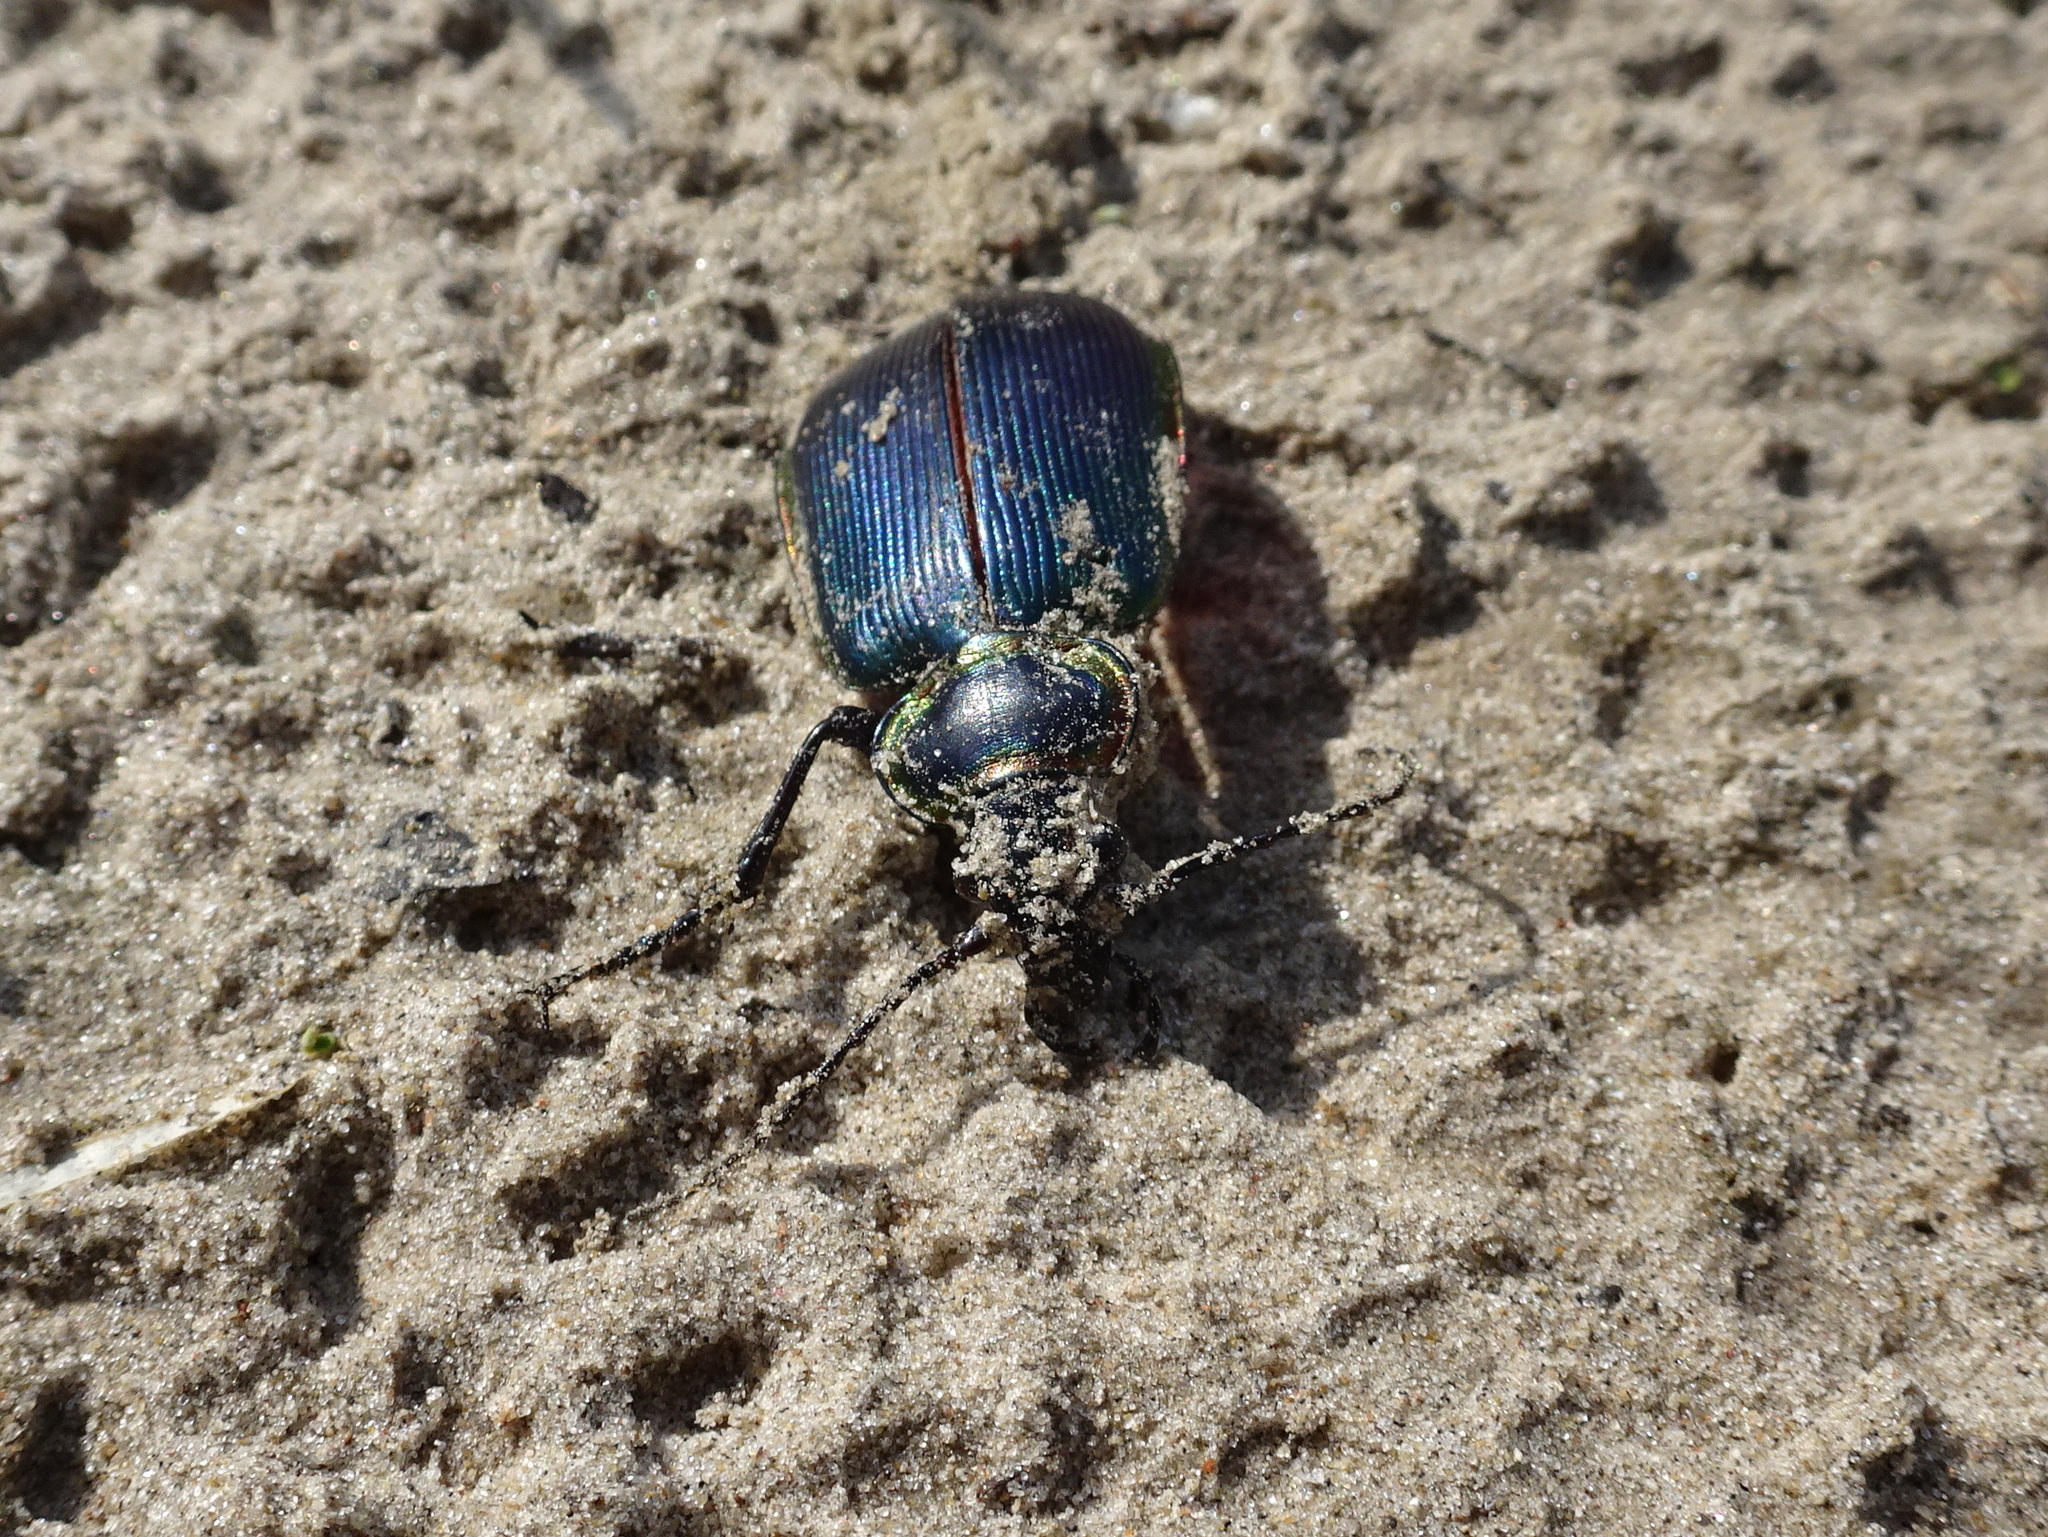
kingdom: Animalia
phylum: Arthropoda
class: Insecta
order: Coleoptera
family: Carabidae
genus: Calosoma
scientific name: Calosoma scrutator
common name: Fiery searcher beetle
